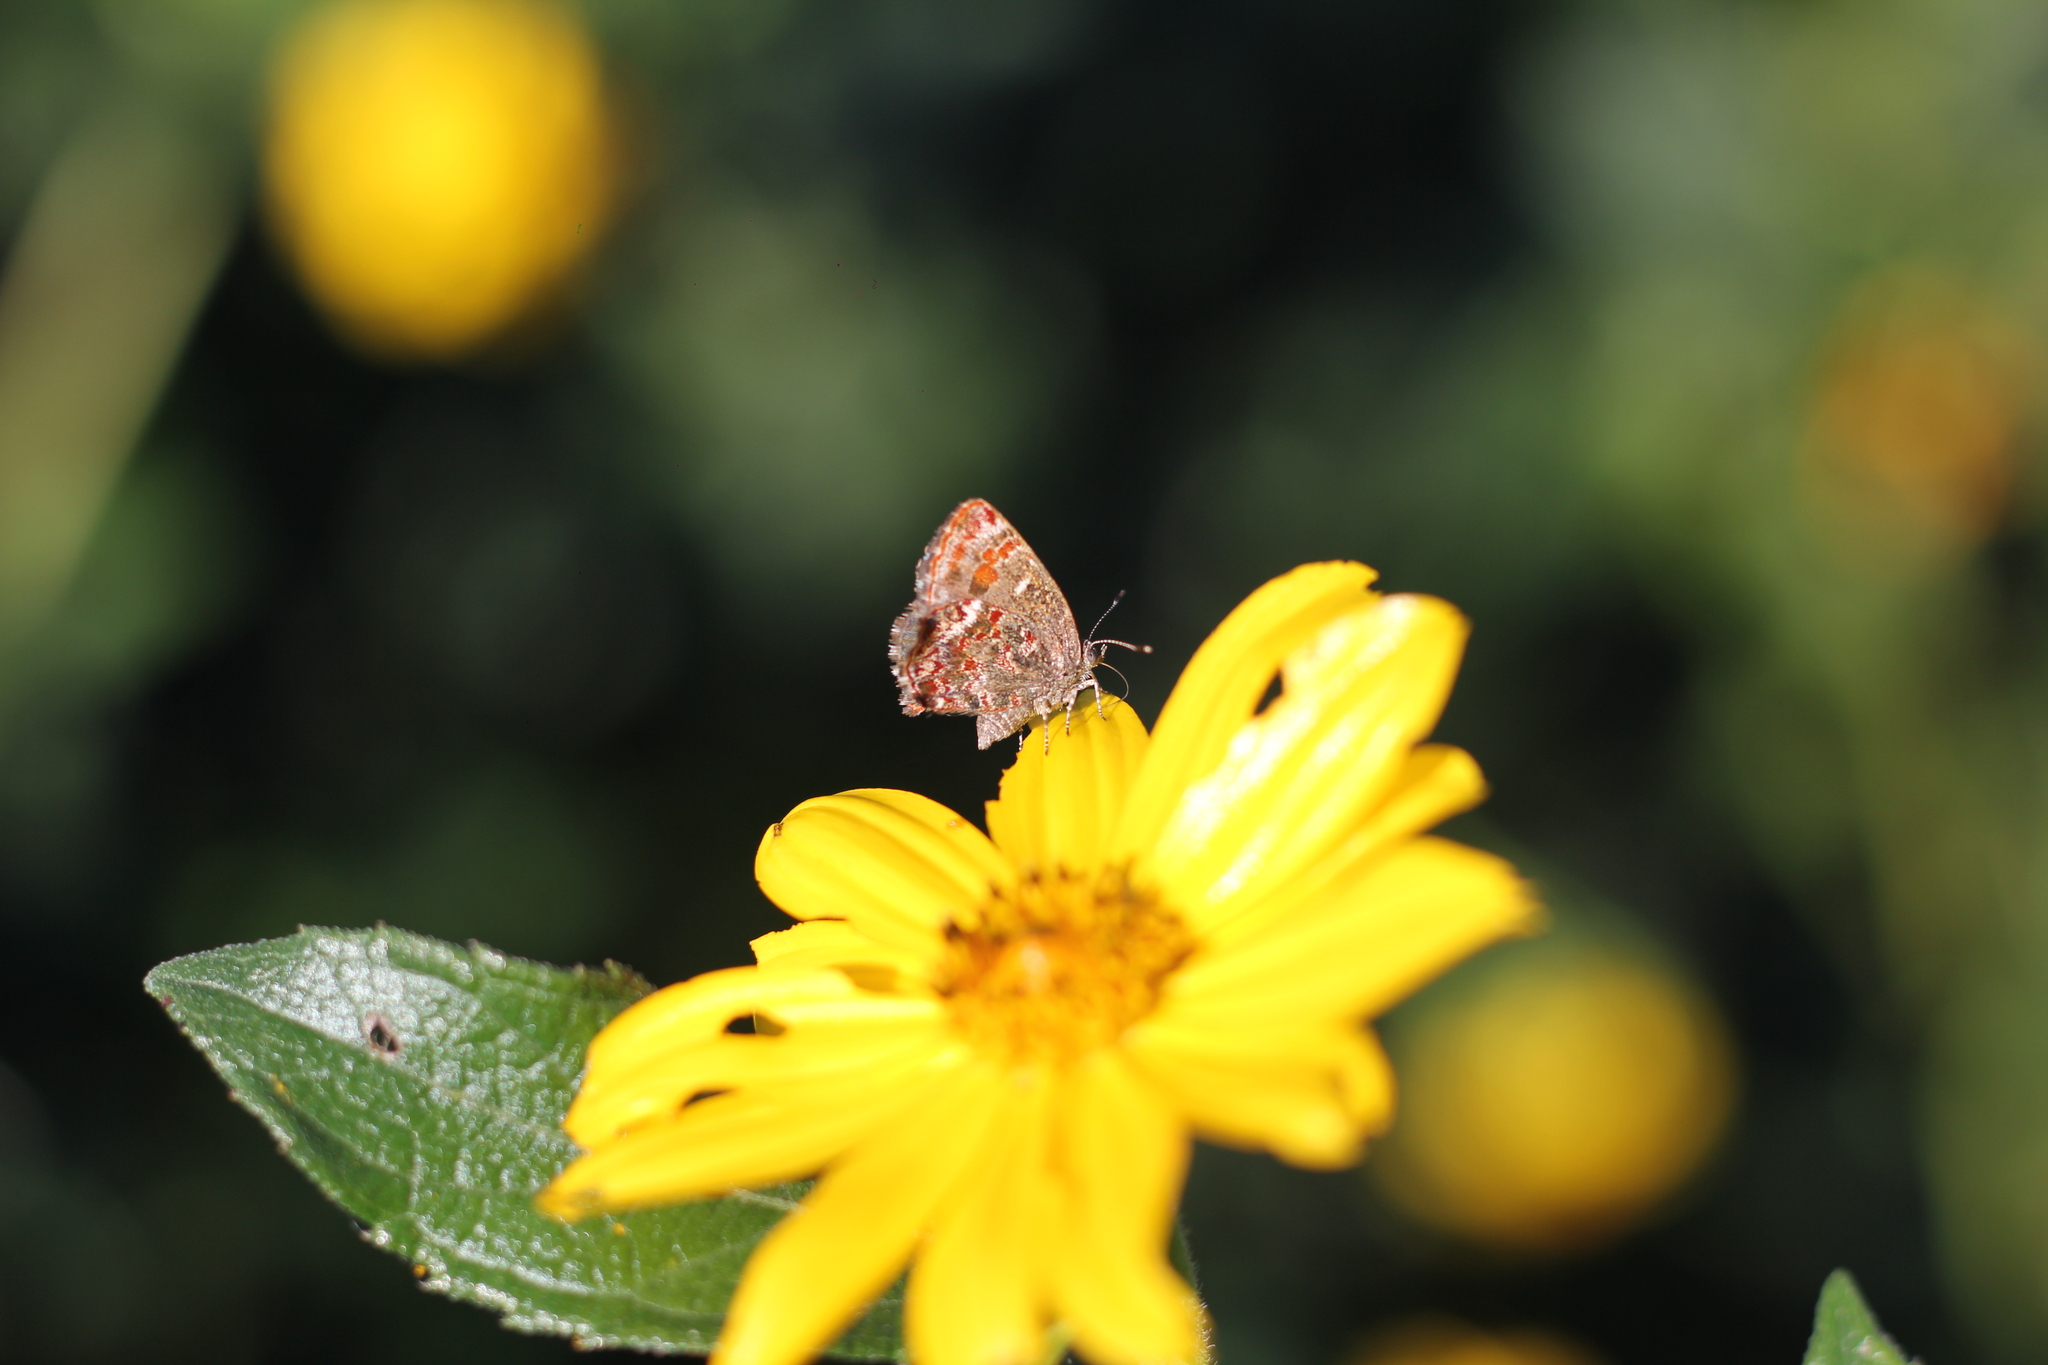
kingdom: Animalia
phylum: Arthropoda
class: Insecta
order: Lepidoptera
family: Lycaenidae
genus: Ministrymon
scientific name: Ministrymon
